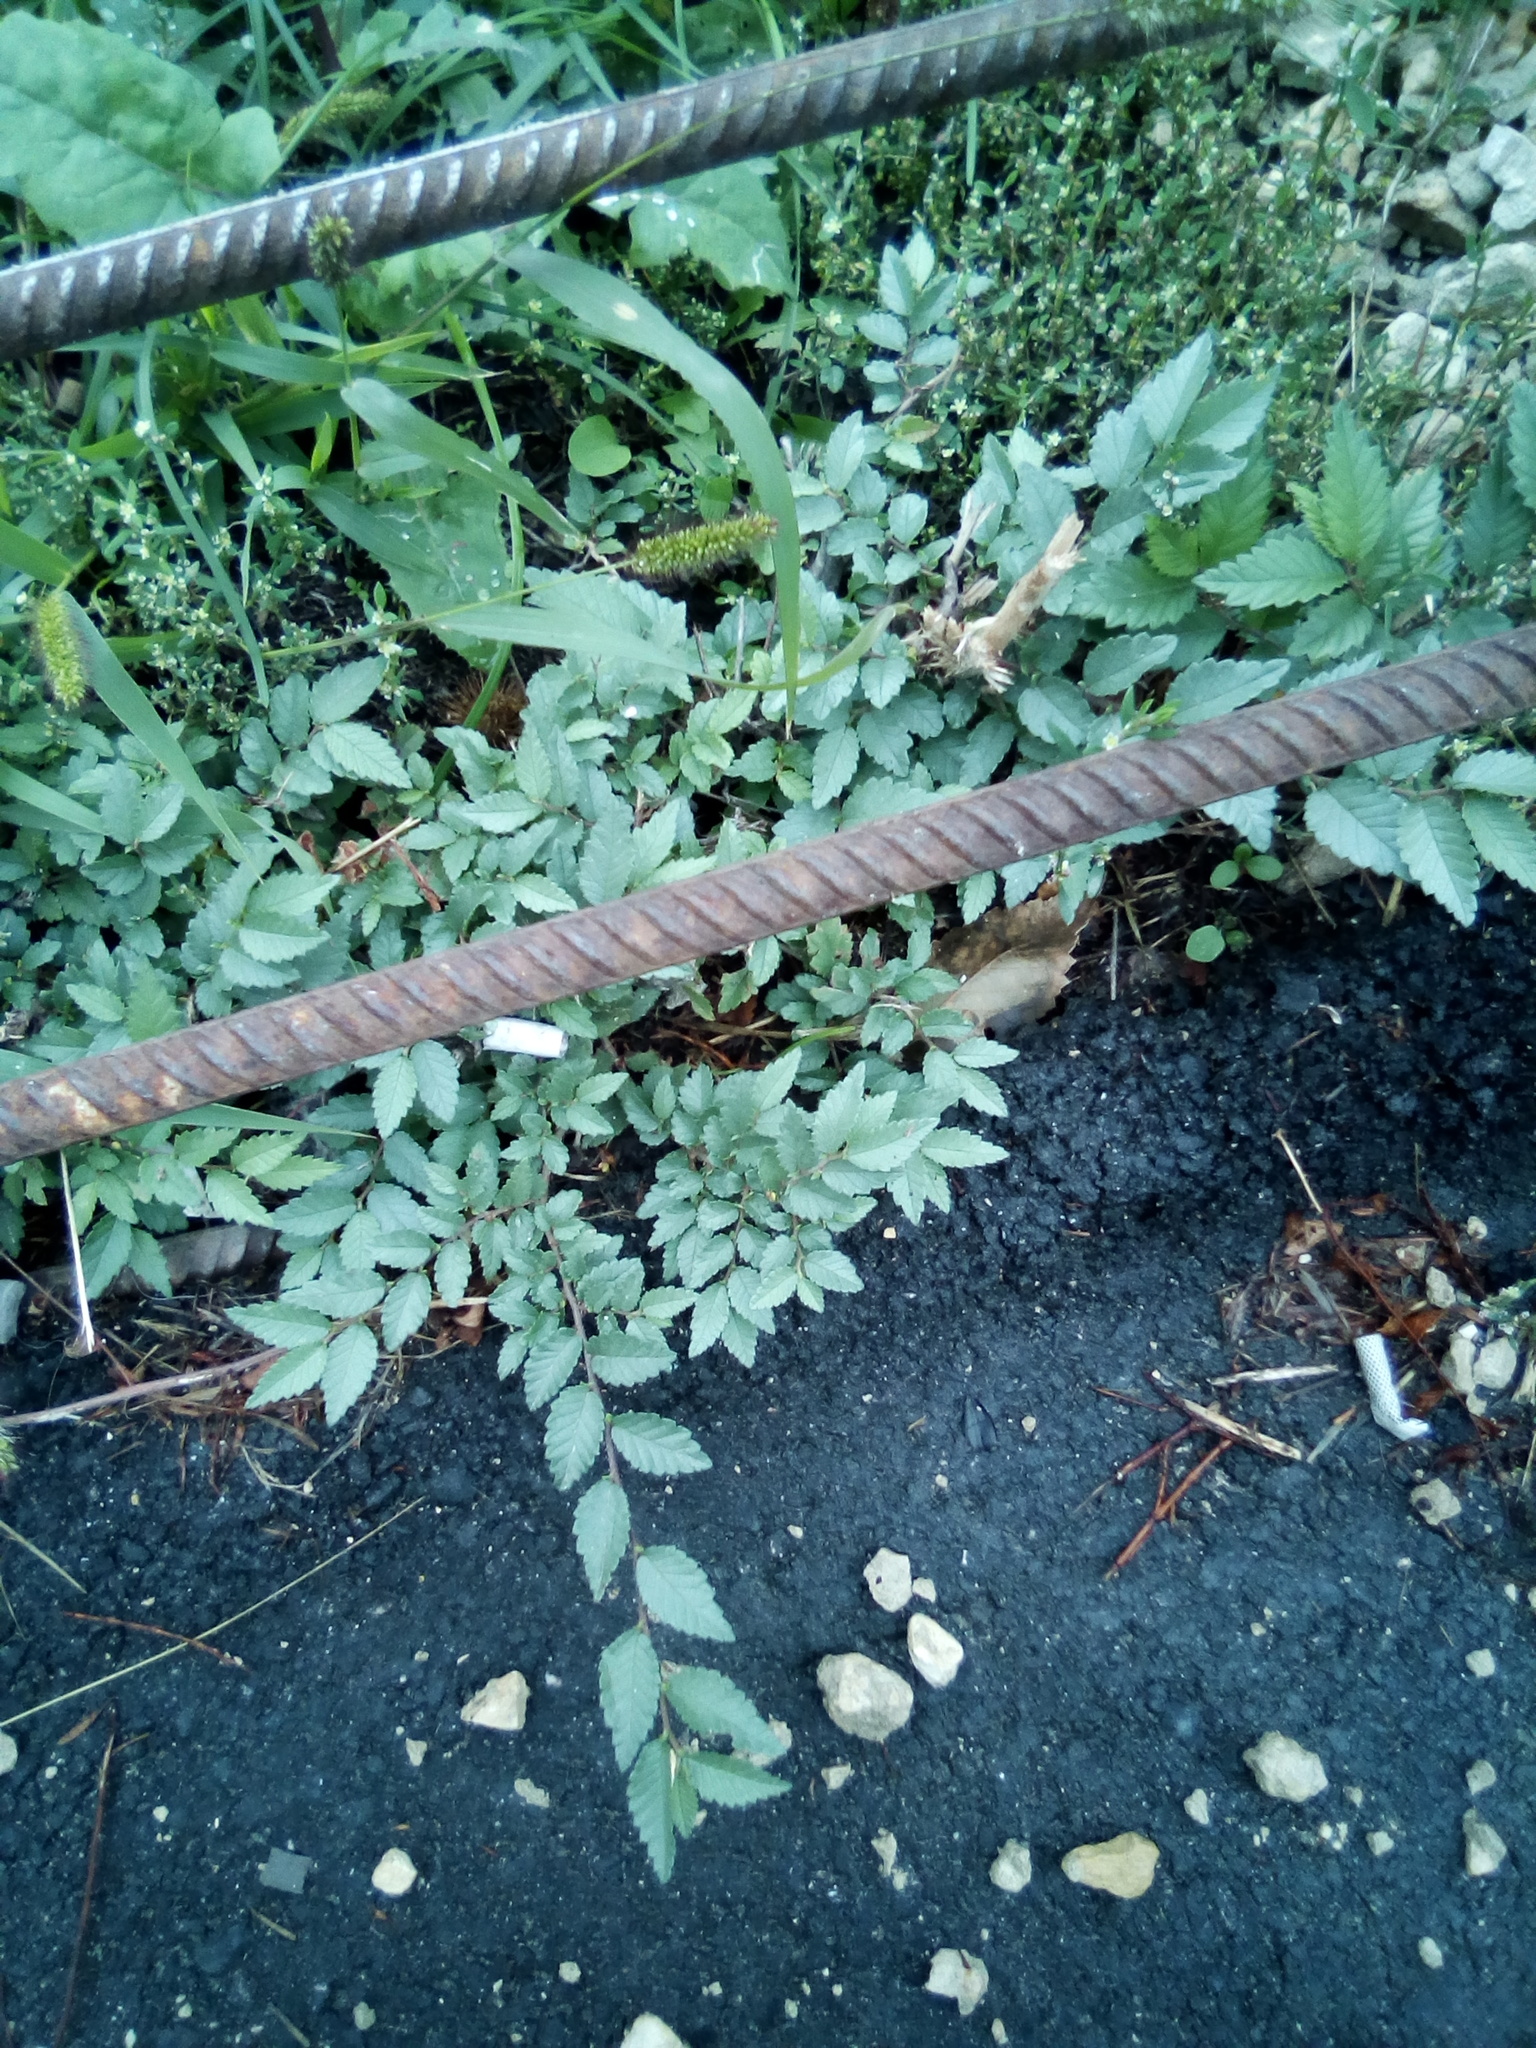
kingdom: Plantae
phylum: Tracheophyta
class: Magnoliopsida
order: Rosales
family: Ulmaceae
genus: Ulmus
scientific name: Ulmus pumila
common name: Siberian elm
